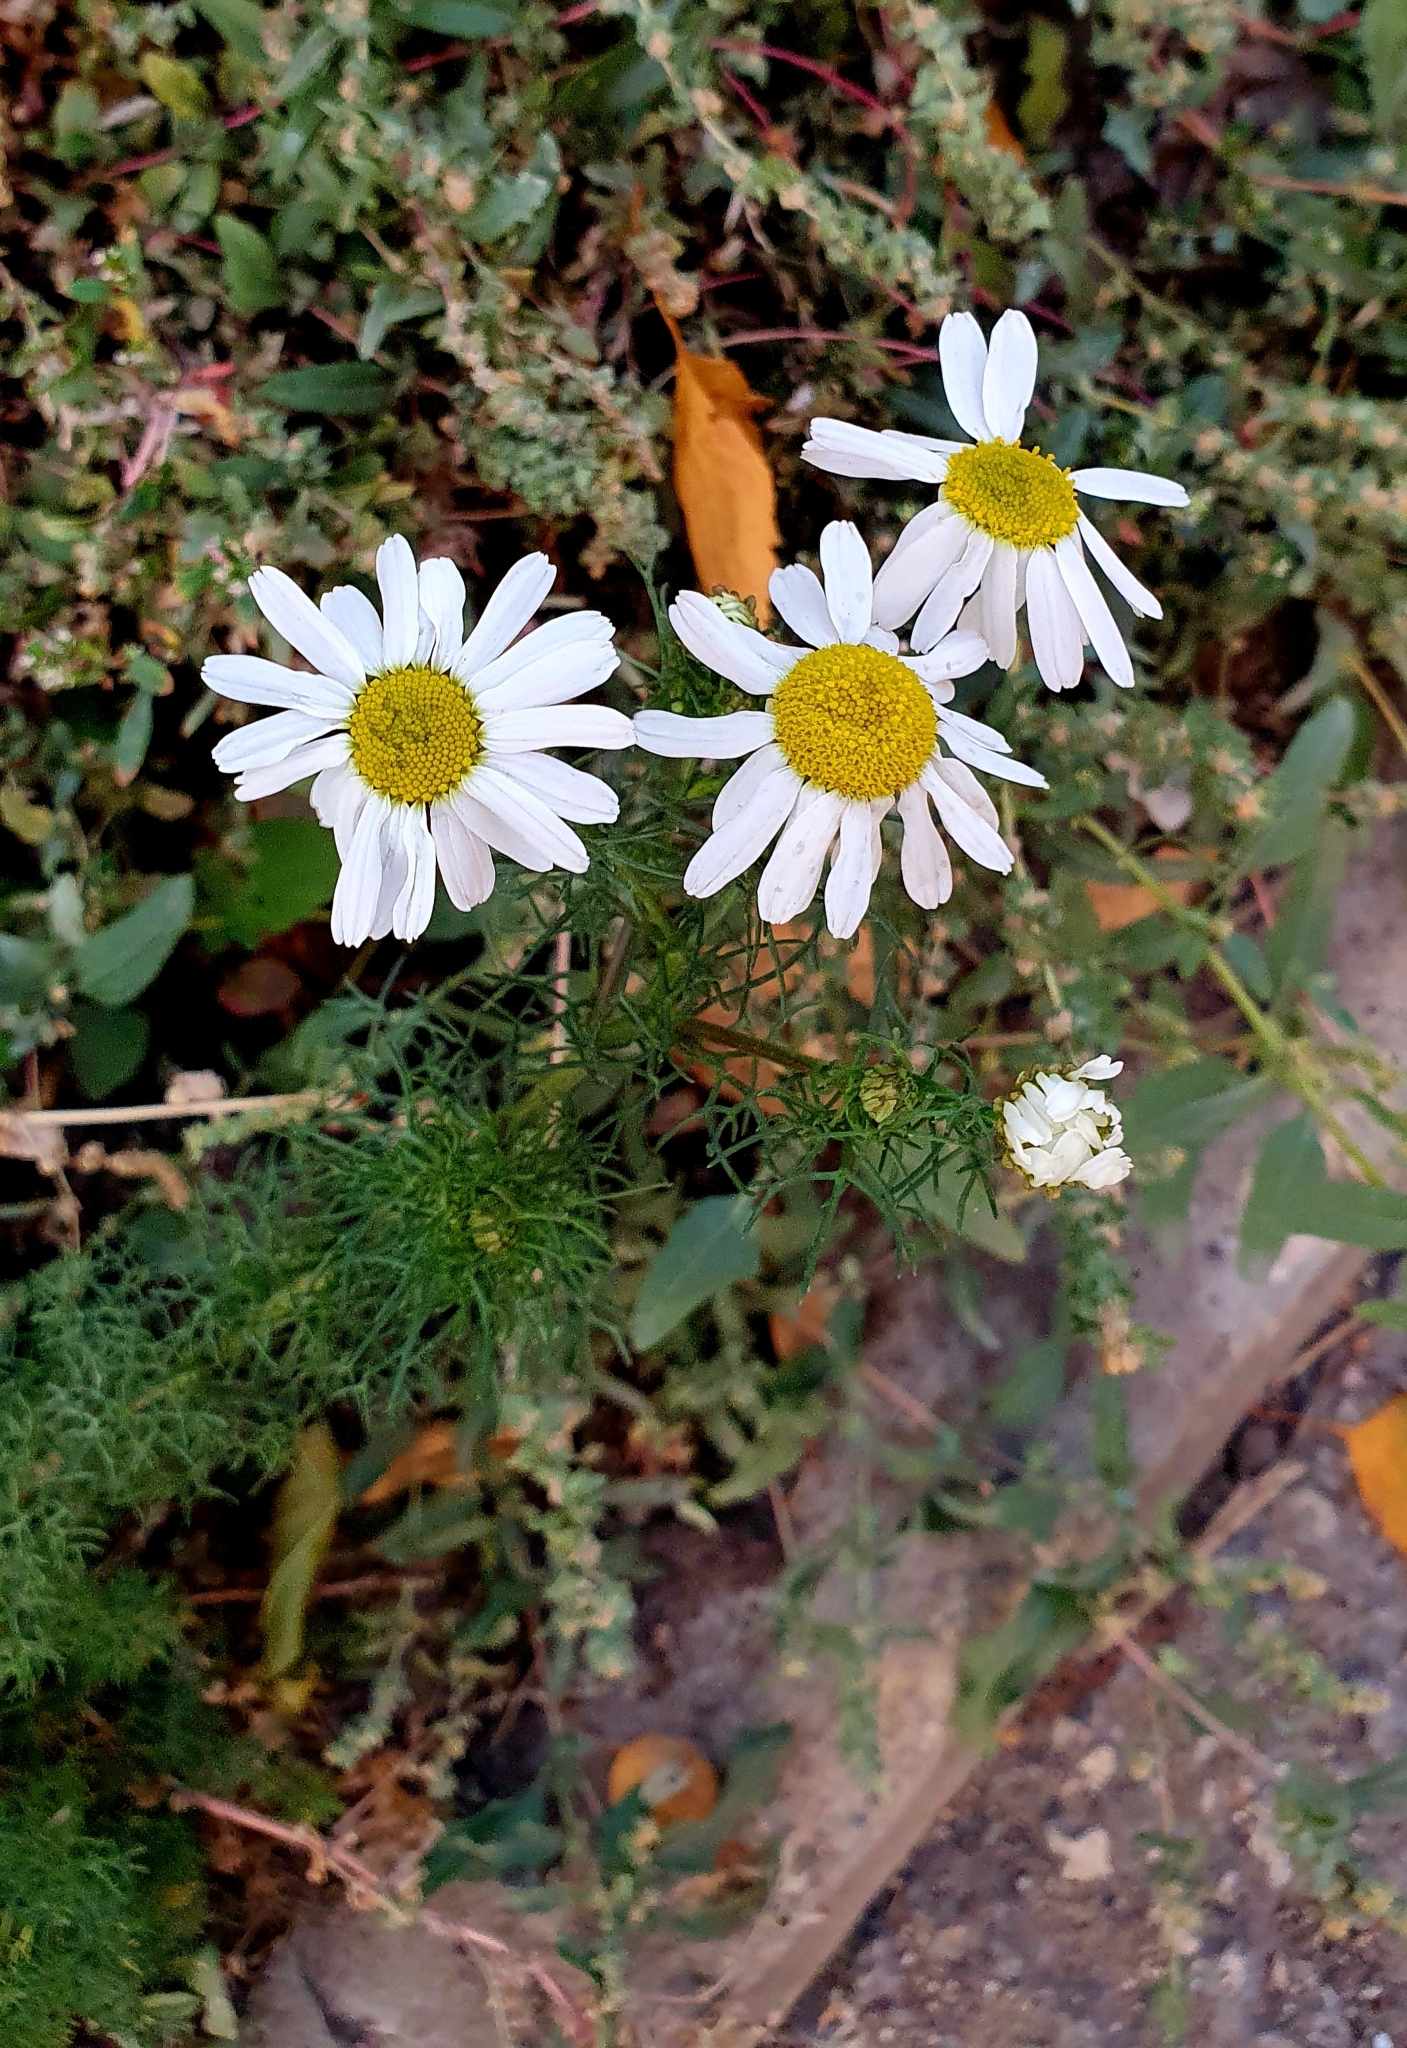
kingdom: Plantae
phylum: Tracheophyta
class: Magnoliopsida
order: Asterales
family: Asteraceae
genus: Tripleurospermum
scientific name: Tripleurospermum inodorum
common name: Scentless mayweed
